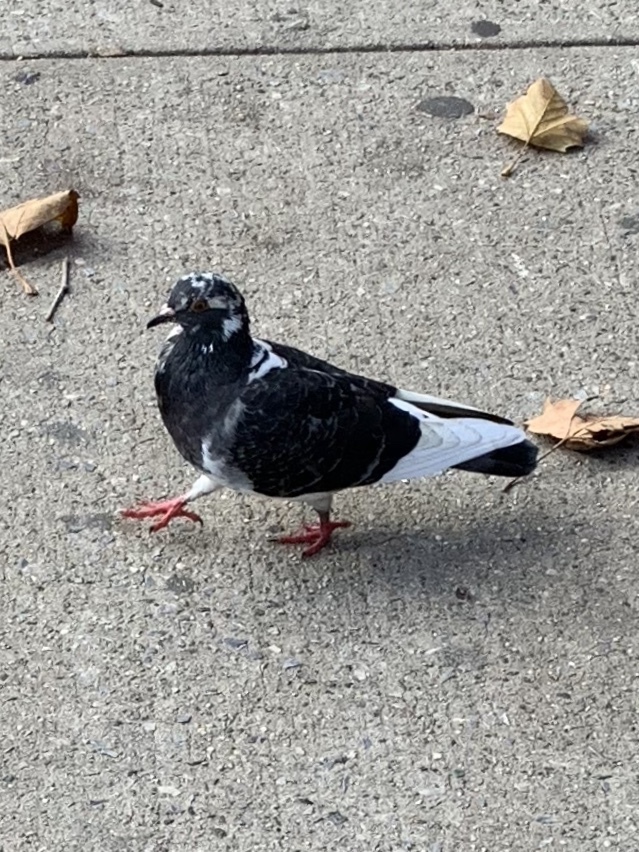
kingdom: Animalia
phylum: Chordata
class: Aves
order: Columbiformes
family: Columbidae
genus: Columba
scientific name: Columba livia
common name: Rock pigeon
